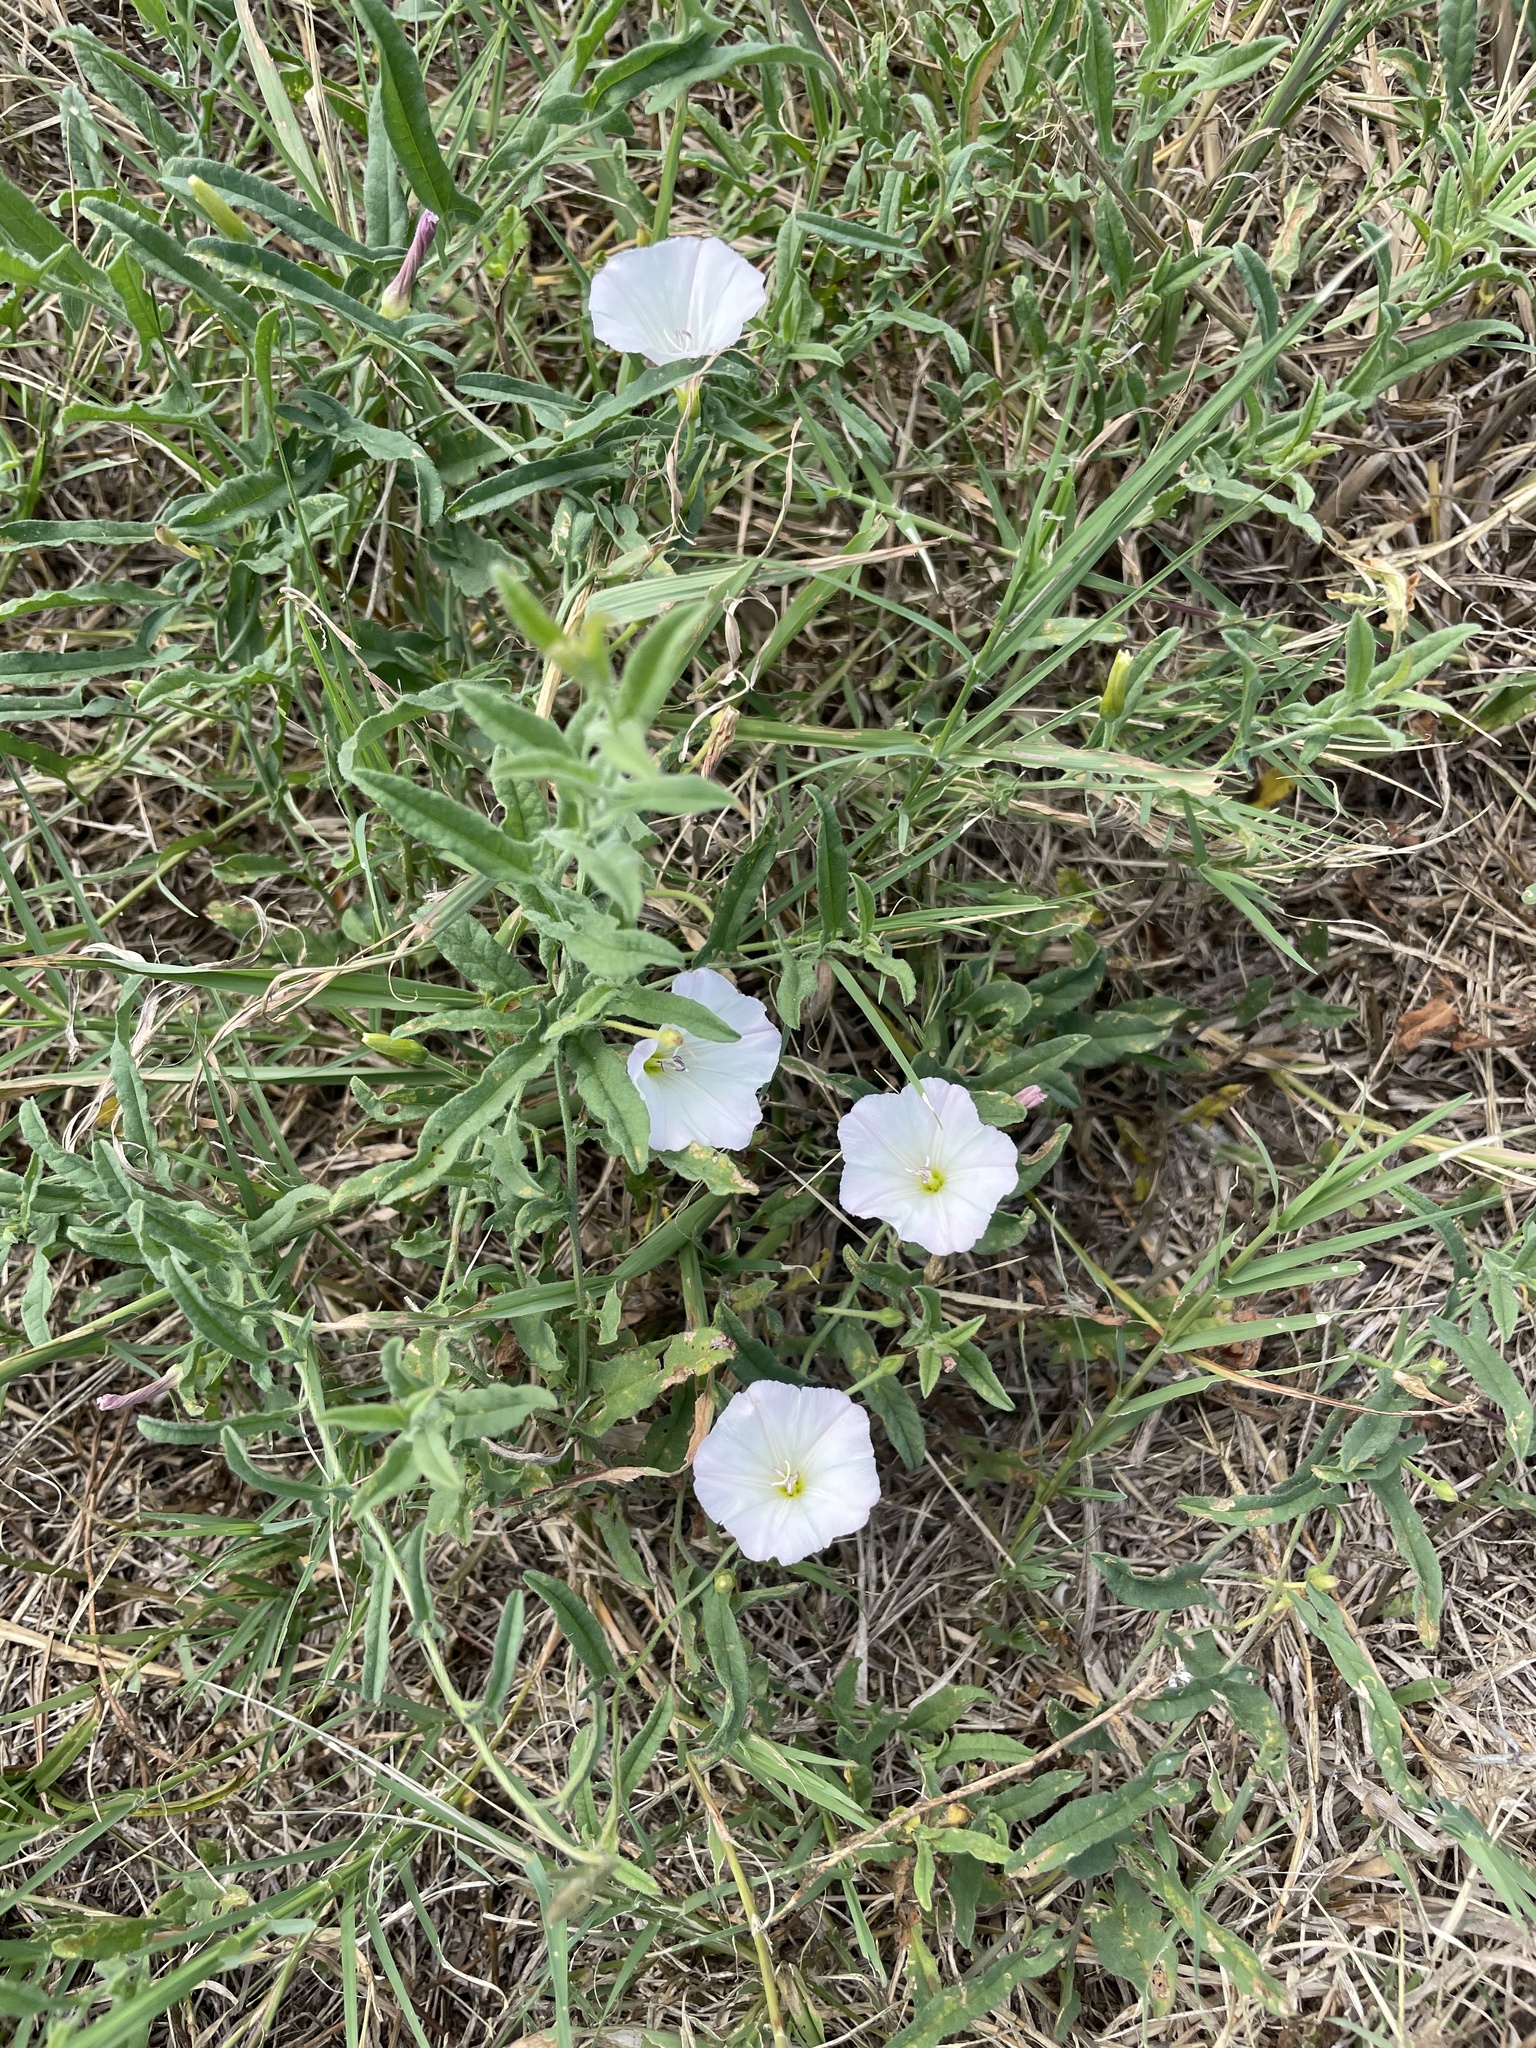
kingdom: Plantae
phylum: Tracheophyta
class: Magnoliopsida
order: Solanales
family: Convolvulaceae
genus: Convolvulus
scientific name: Convolvulus arvensis
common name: Field bindweed
